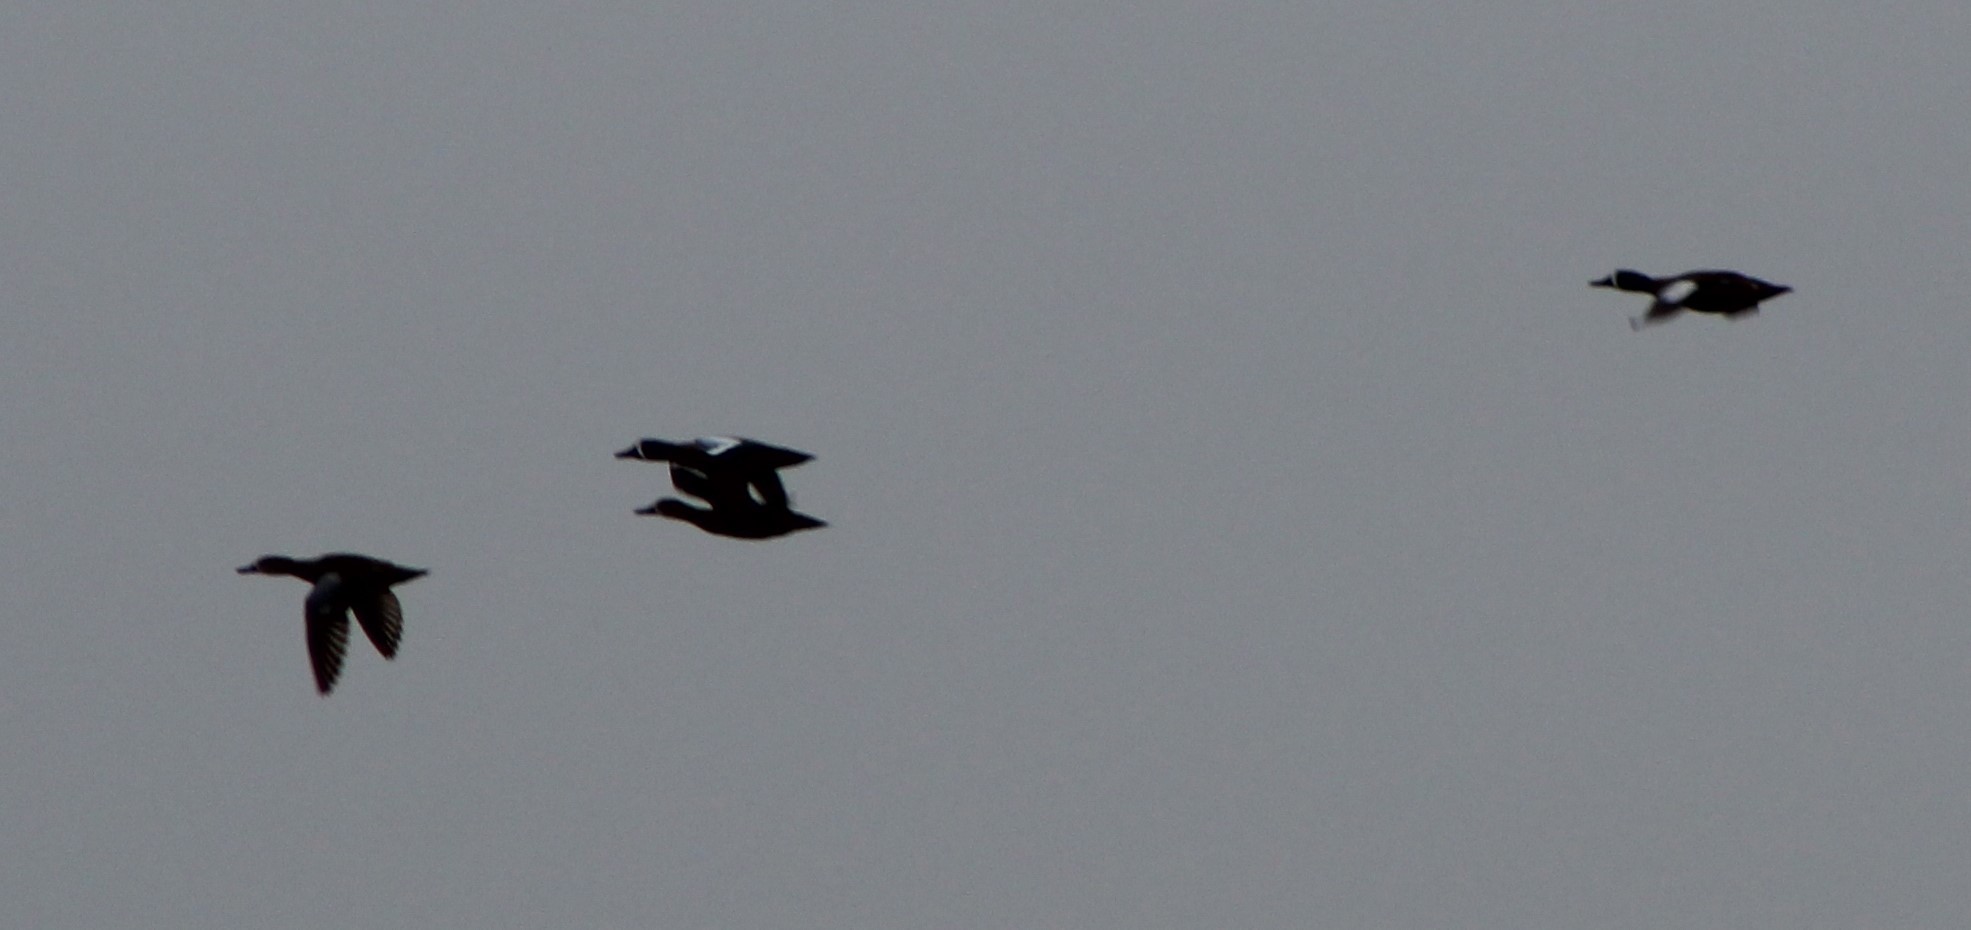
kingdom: Animalia
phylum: Chordata
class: Aves
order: Anseriformes
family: Anatidae
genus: Spatula
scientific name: Spatula discors
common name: Blue-winged teal
